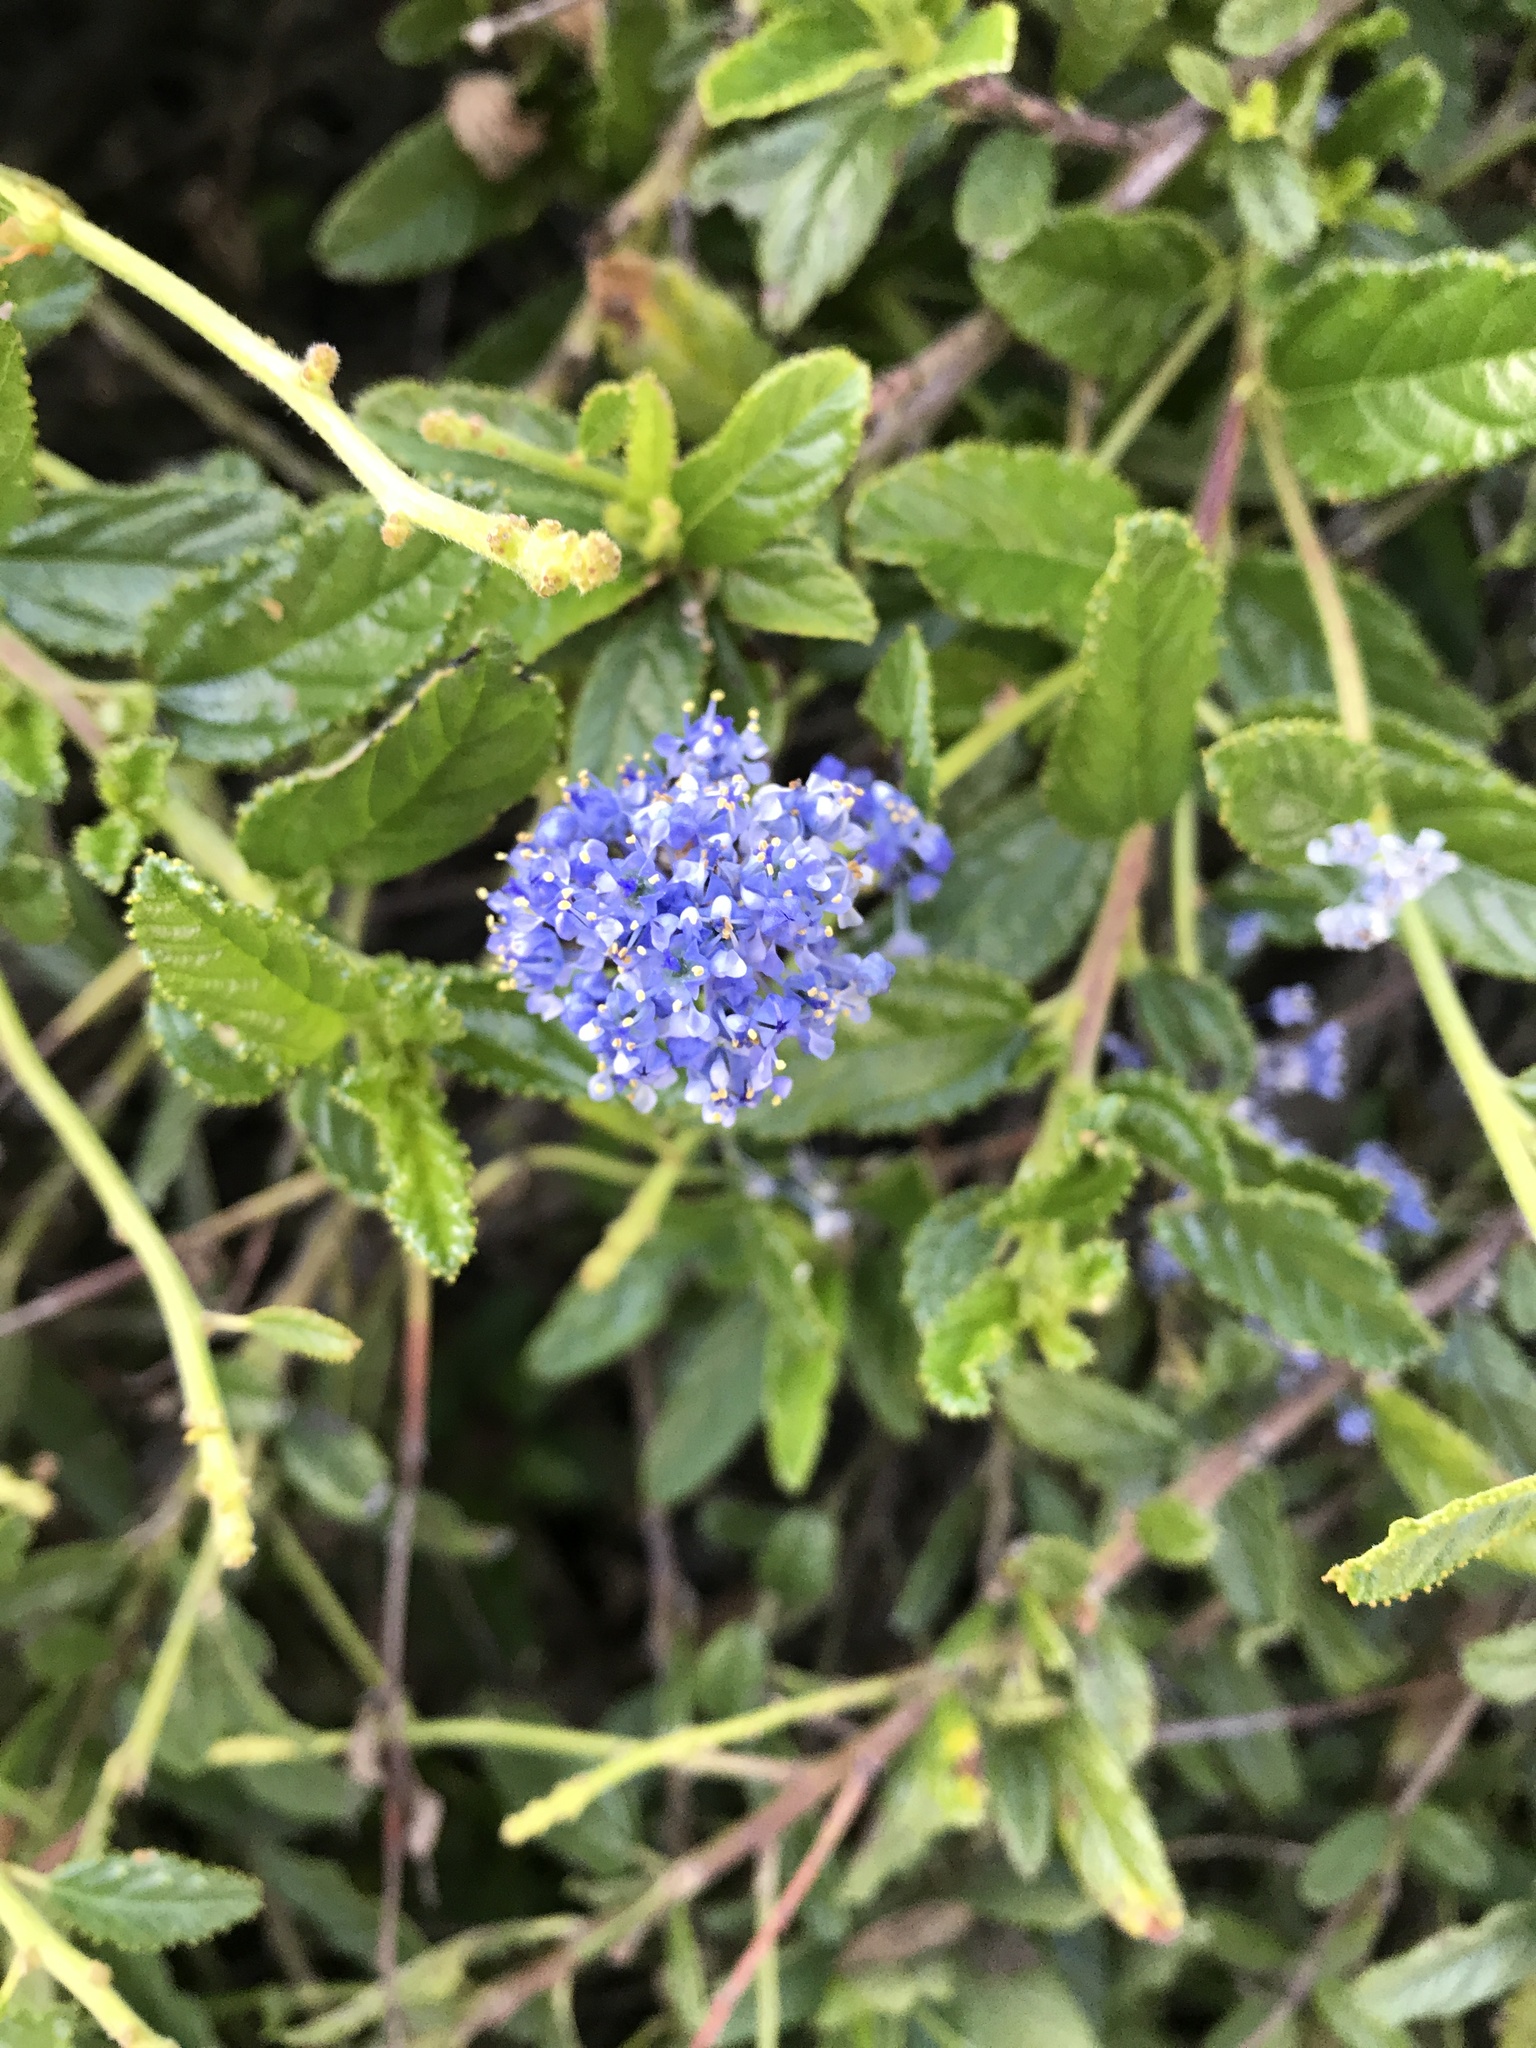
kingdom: Plantae
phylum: Tracheophyta
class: Magnoliopsida
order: Rosales
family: Rhamnaceae
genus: Ceanothus
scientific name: Ceanothus thyrsiflorus
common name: California-lilac
